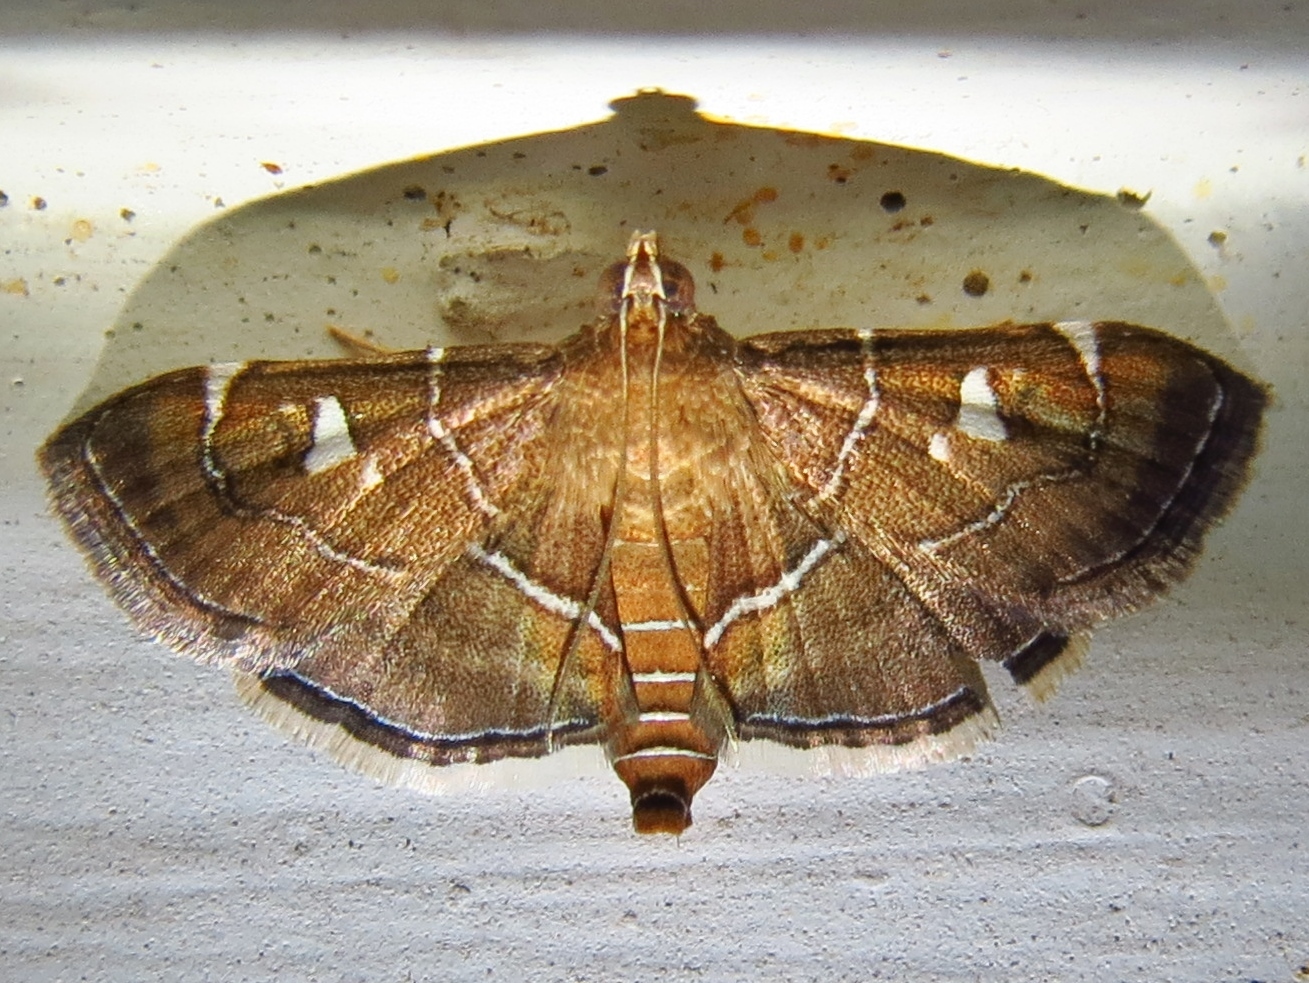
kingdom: Animalia
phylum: Arthropoda
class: Insecta
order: Lepidoptera
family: Crambidae
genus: Lamprosema
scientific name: Lamprosema victoriae
